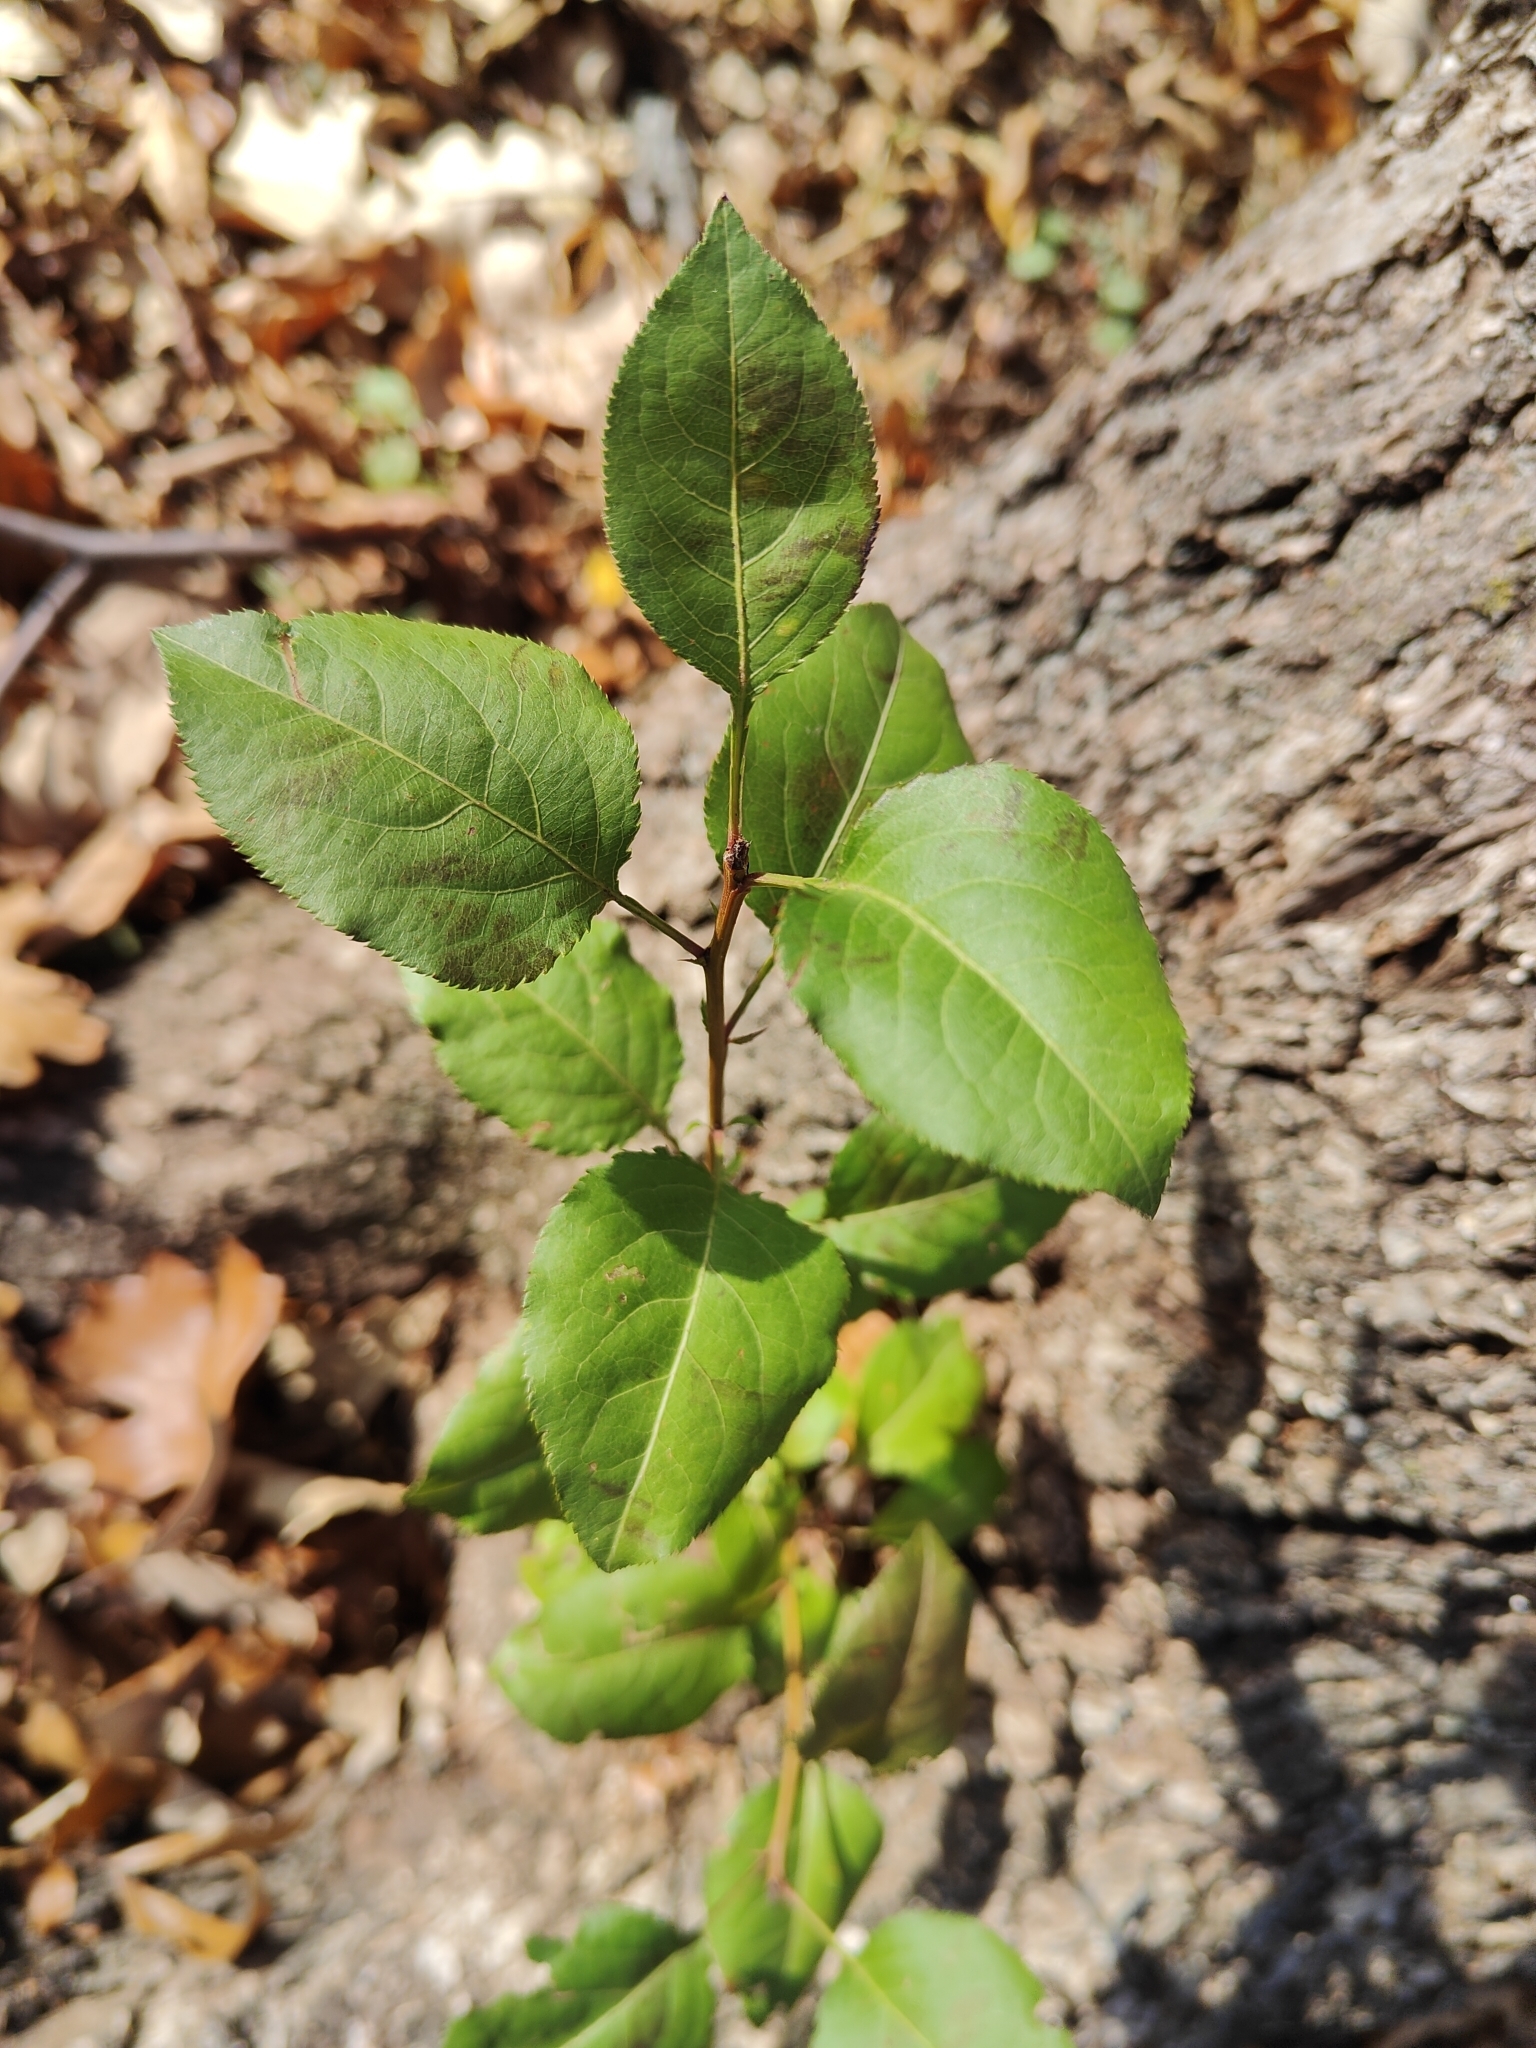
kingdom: Plantae
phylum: Tracheophyta
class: Magnoliopsida
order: Rosales
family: Rosaceae
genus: Pyrus
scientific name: Pyrus calleryana
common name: Callery pear
